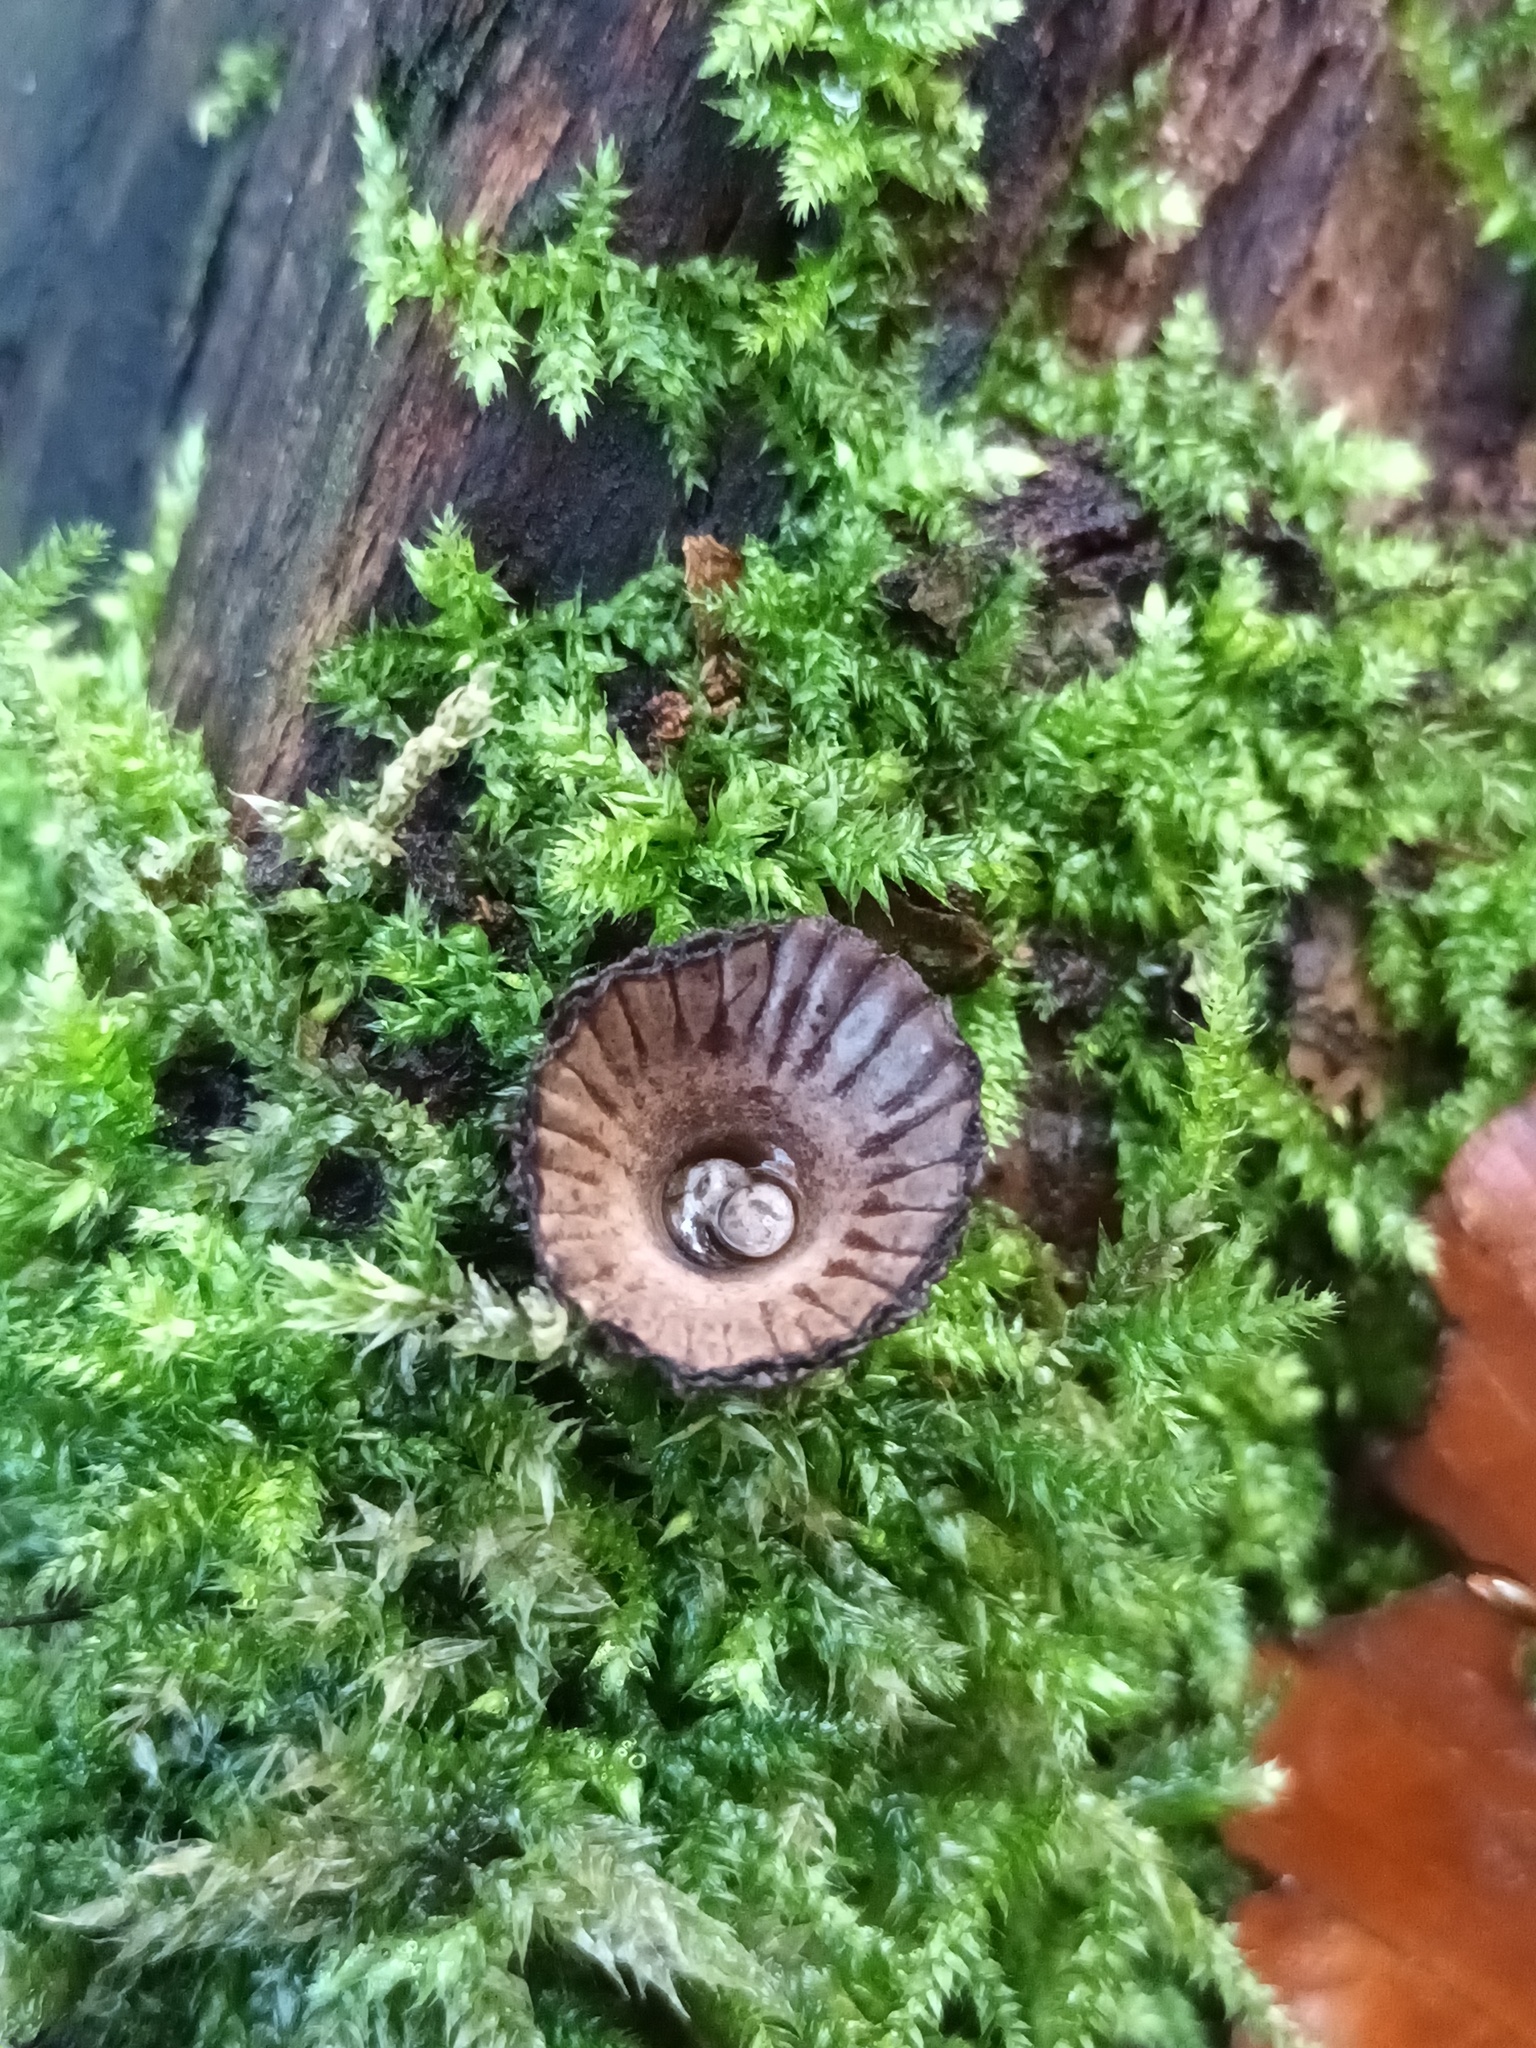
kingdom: Fungi
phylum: Basidiomycota
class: Agaricomycetes
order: Agaricales
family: Agaricaceae
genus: Cyathus
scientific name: Cyathus striatus
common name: Fluted bird's nest
